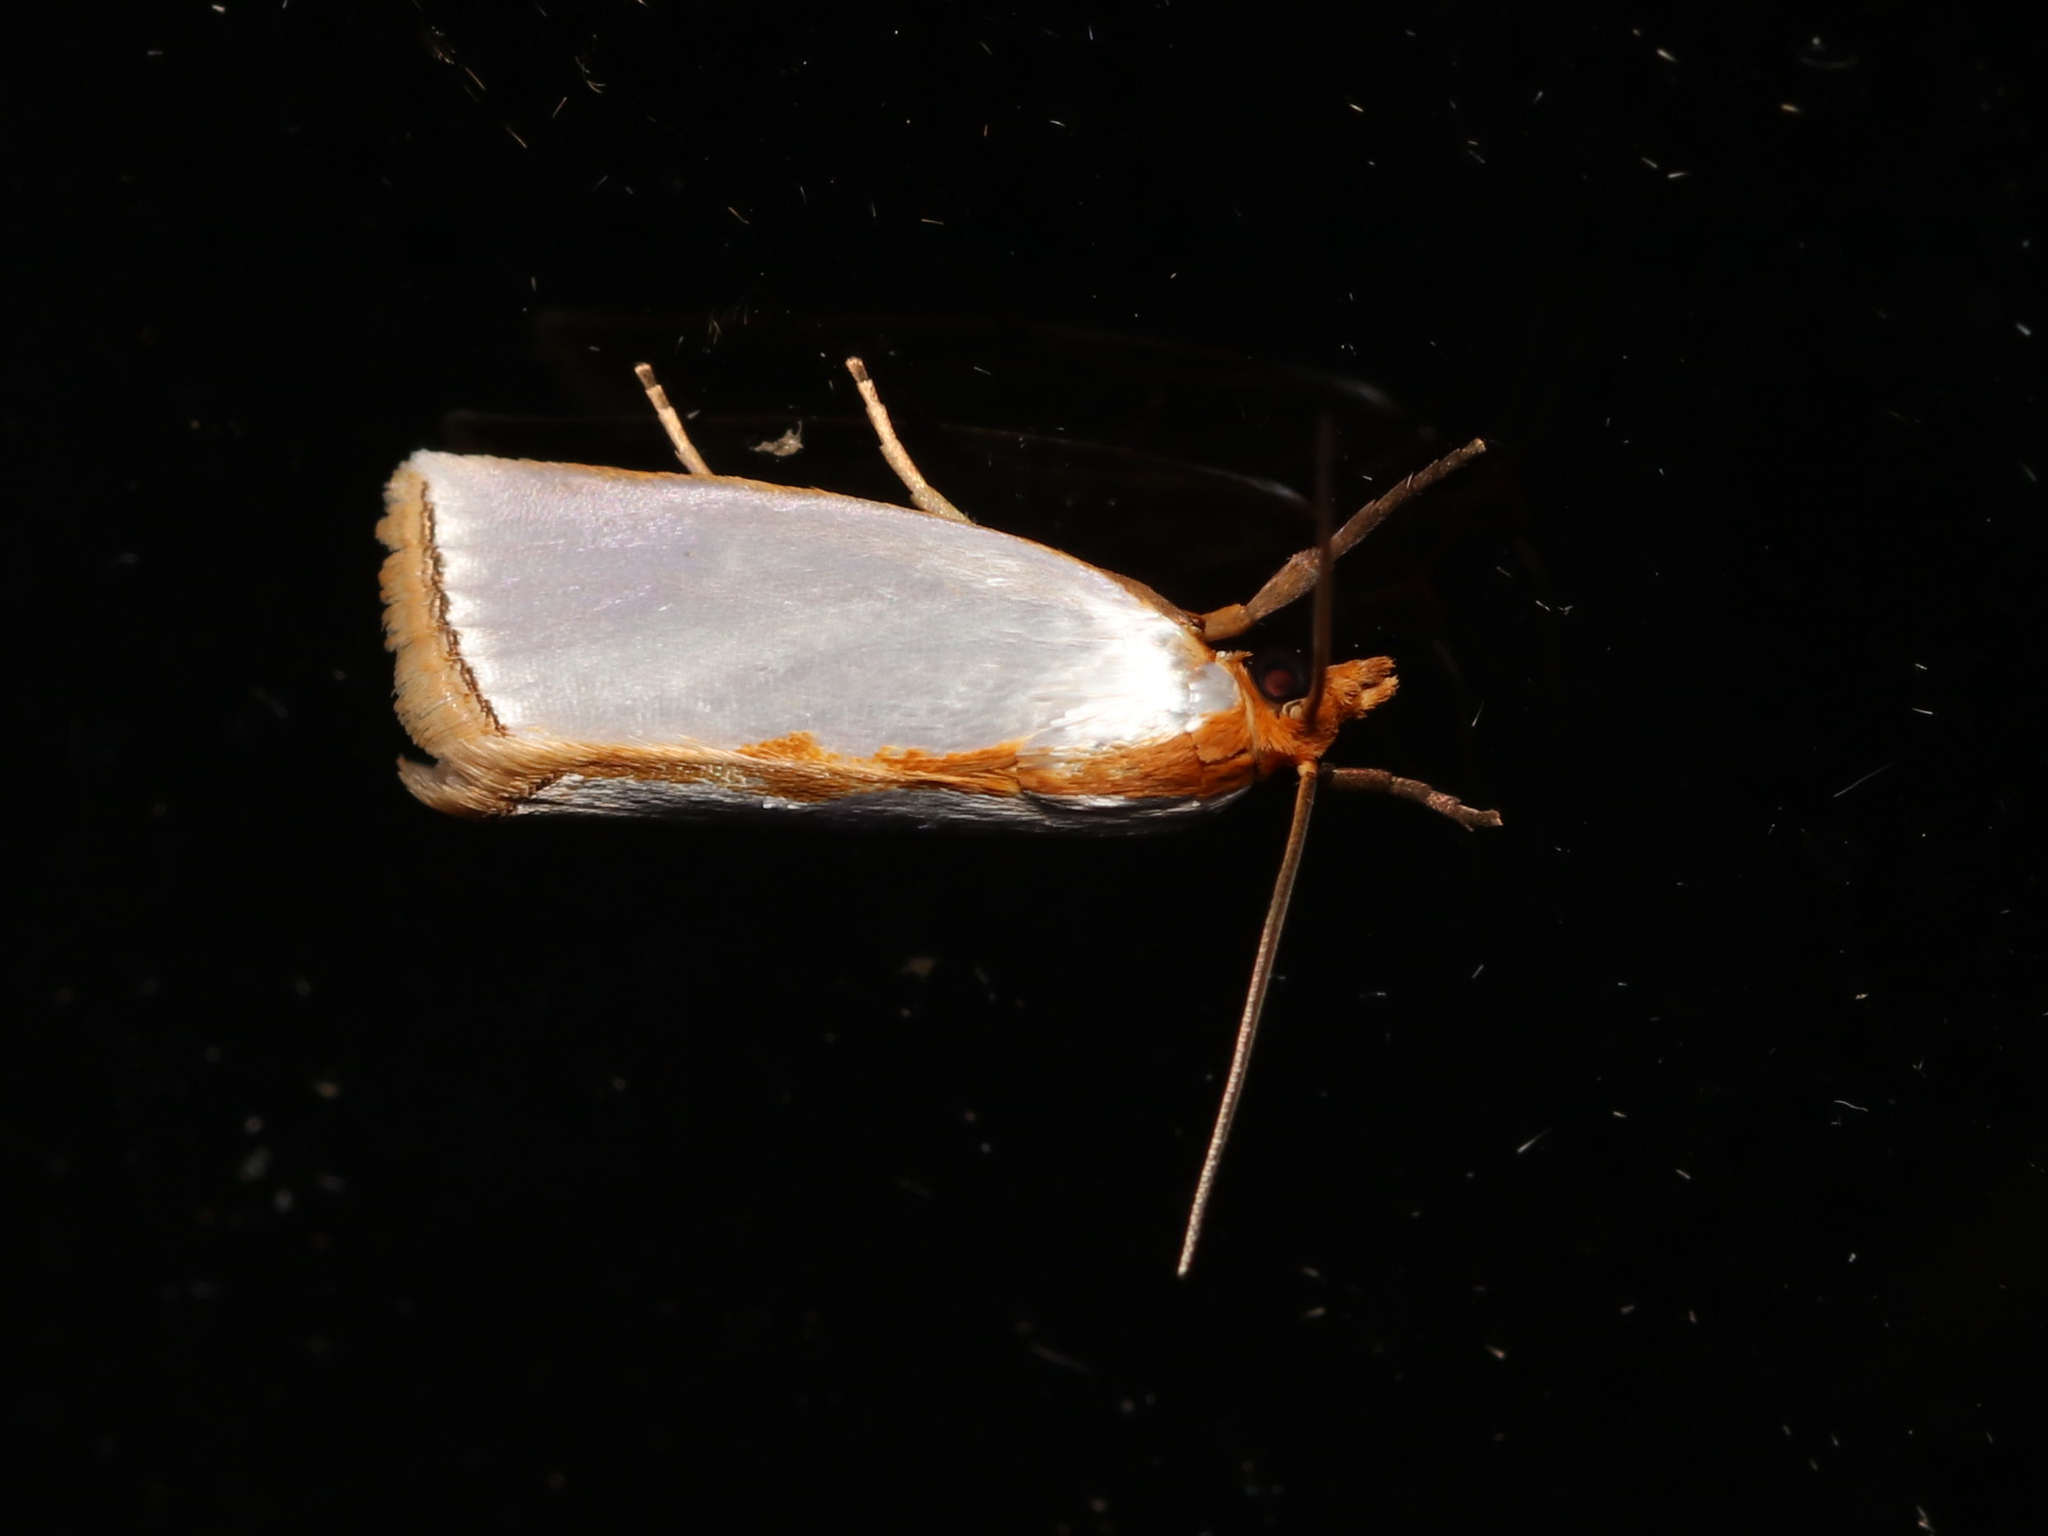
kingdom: Animalia
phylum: Arthropoda
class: Insecta
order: Lepidoptera
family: Crambidae
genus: Argyria
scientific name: Argyria
